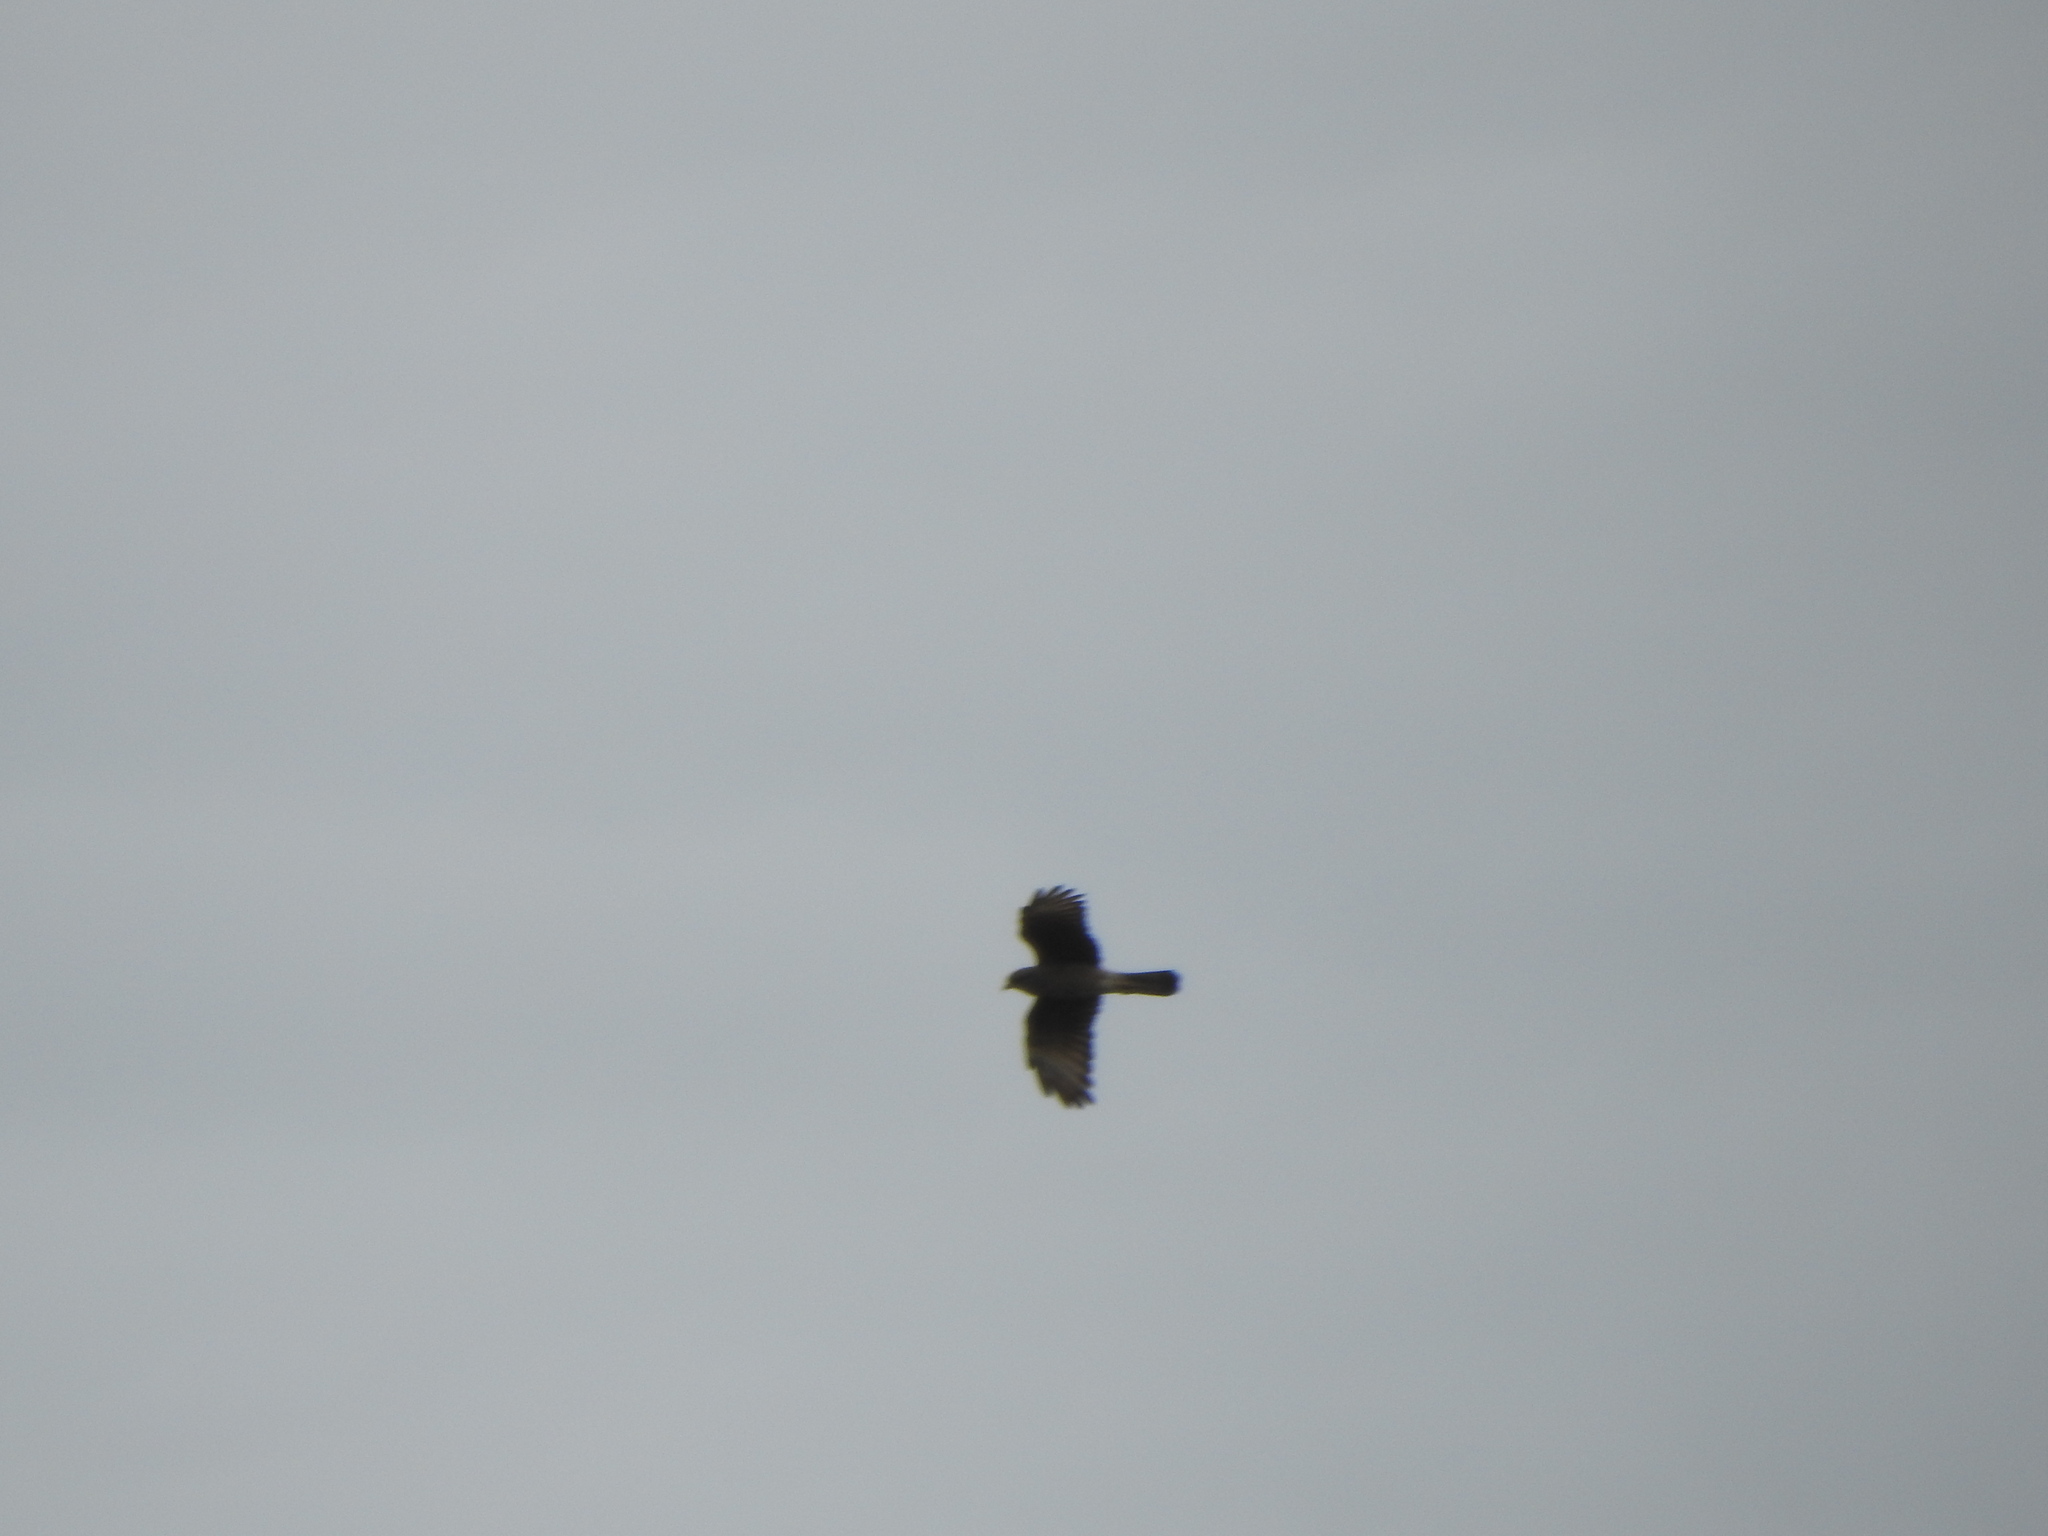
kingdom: Animalia
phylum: Chordata
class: Aves
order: Falconiformes
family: Falconidae
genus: Daptrius
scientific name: Daptrius
